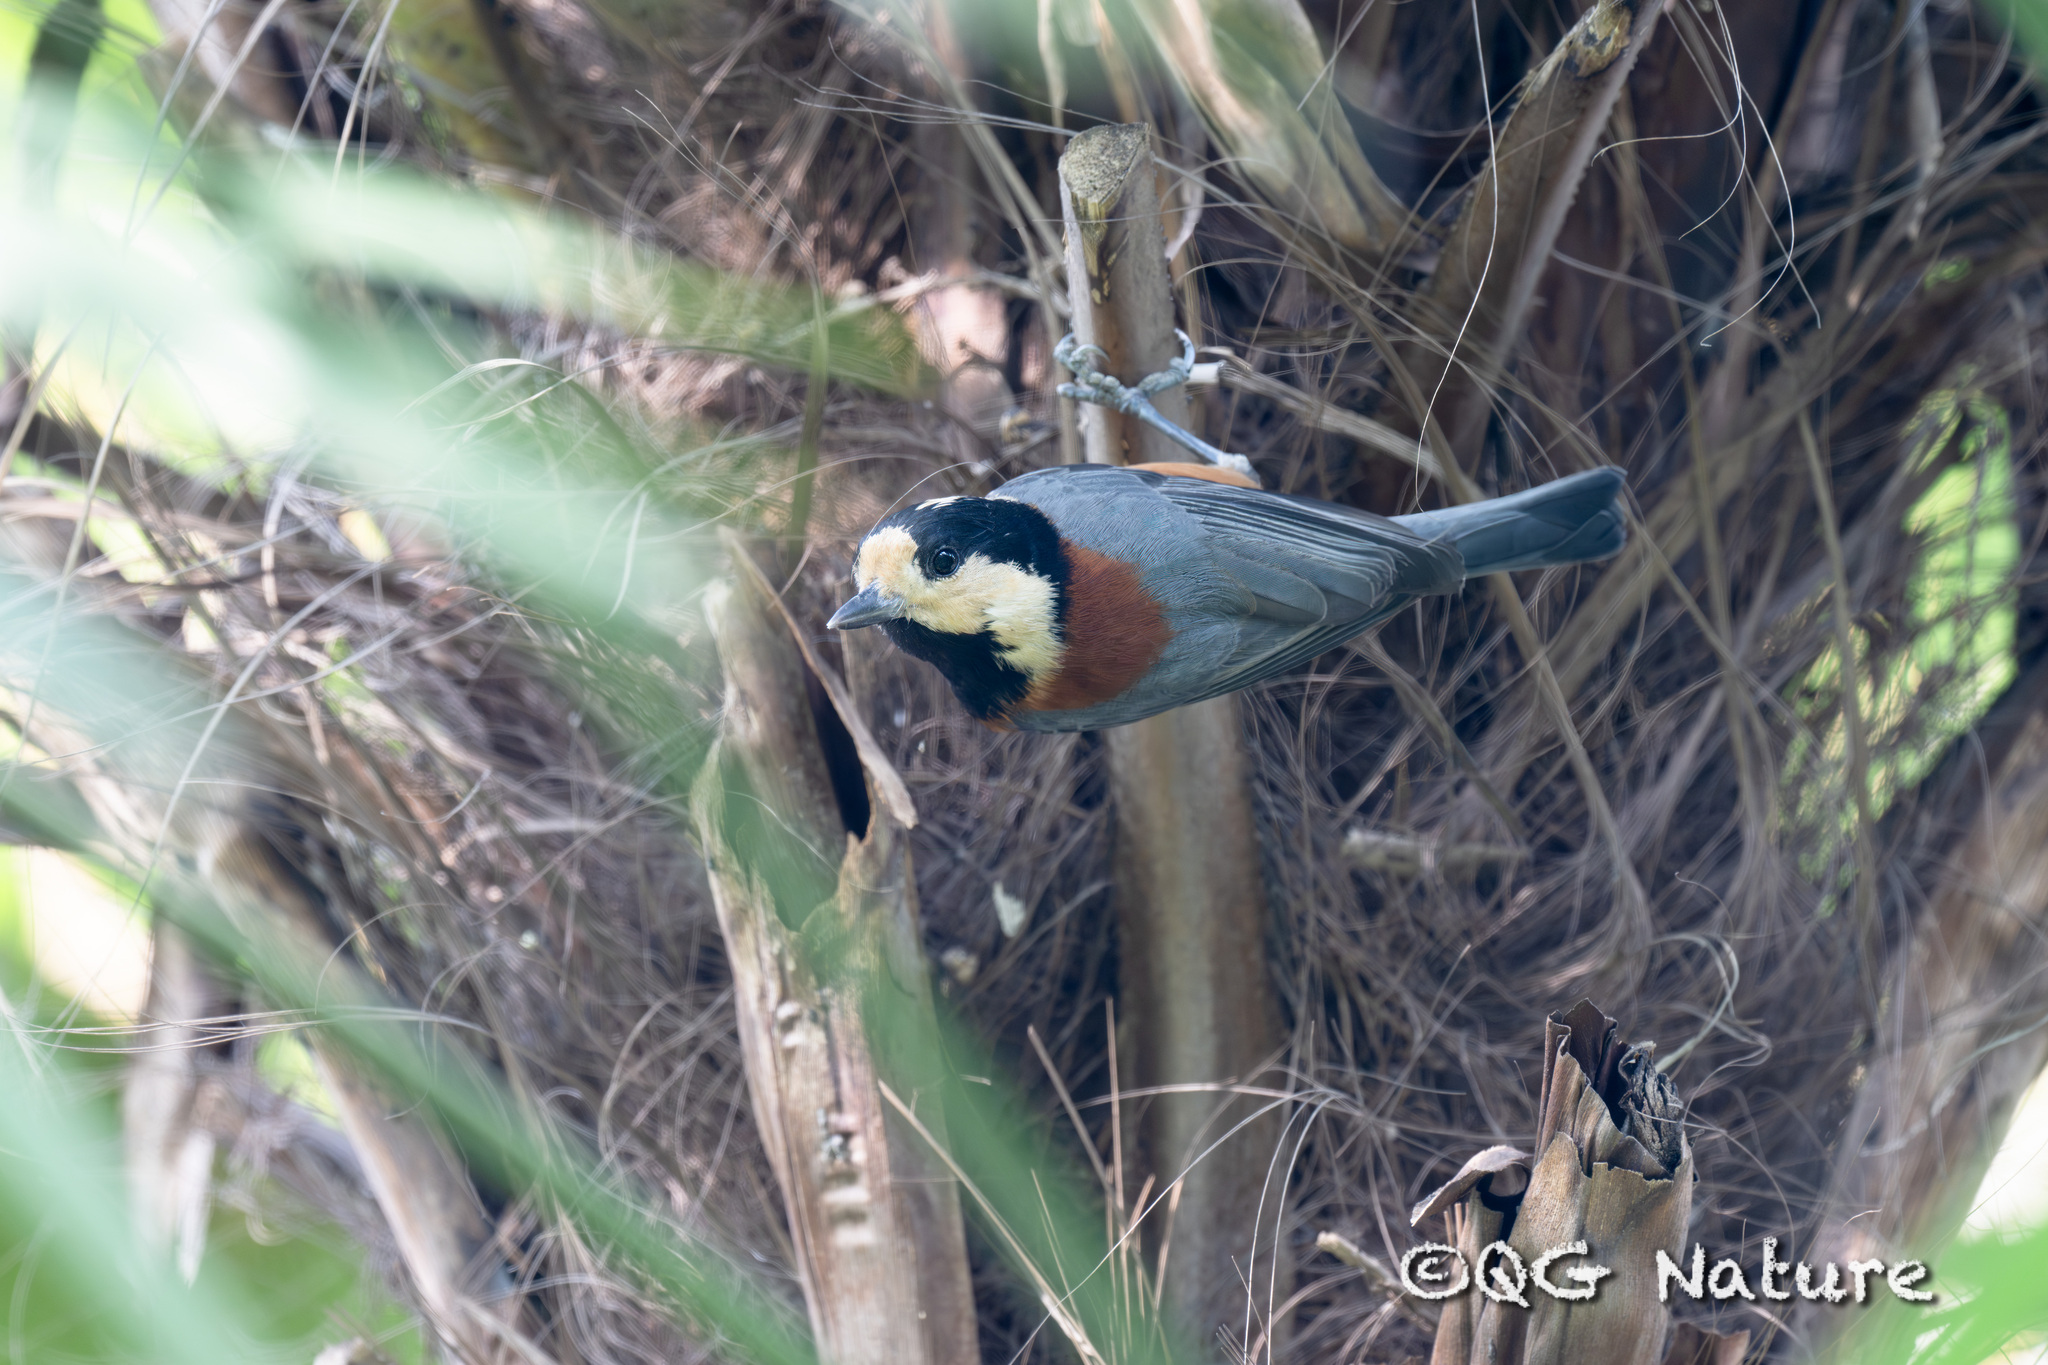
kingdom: Animalia
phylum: Chordata
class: Aves
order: Passeriformes
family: Paridae
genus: Poecile
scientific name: Poecile varius
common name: Varied tit
